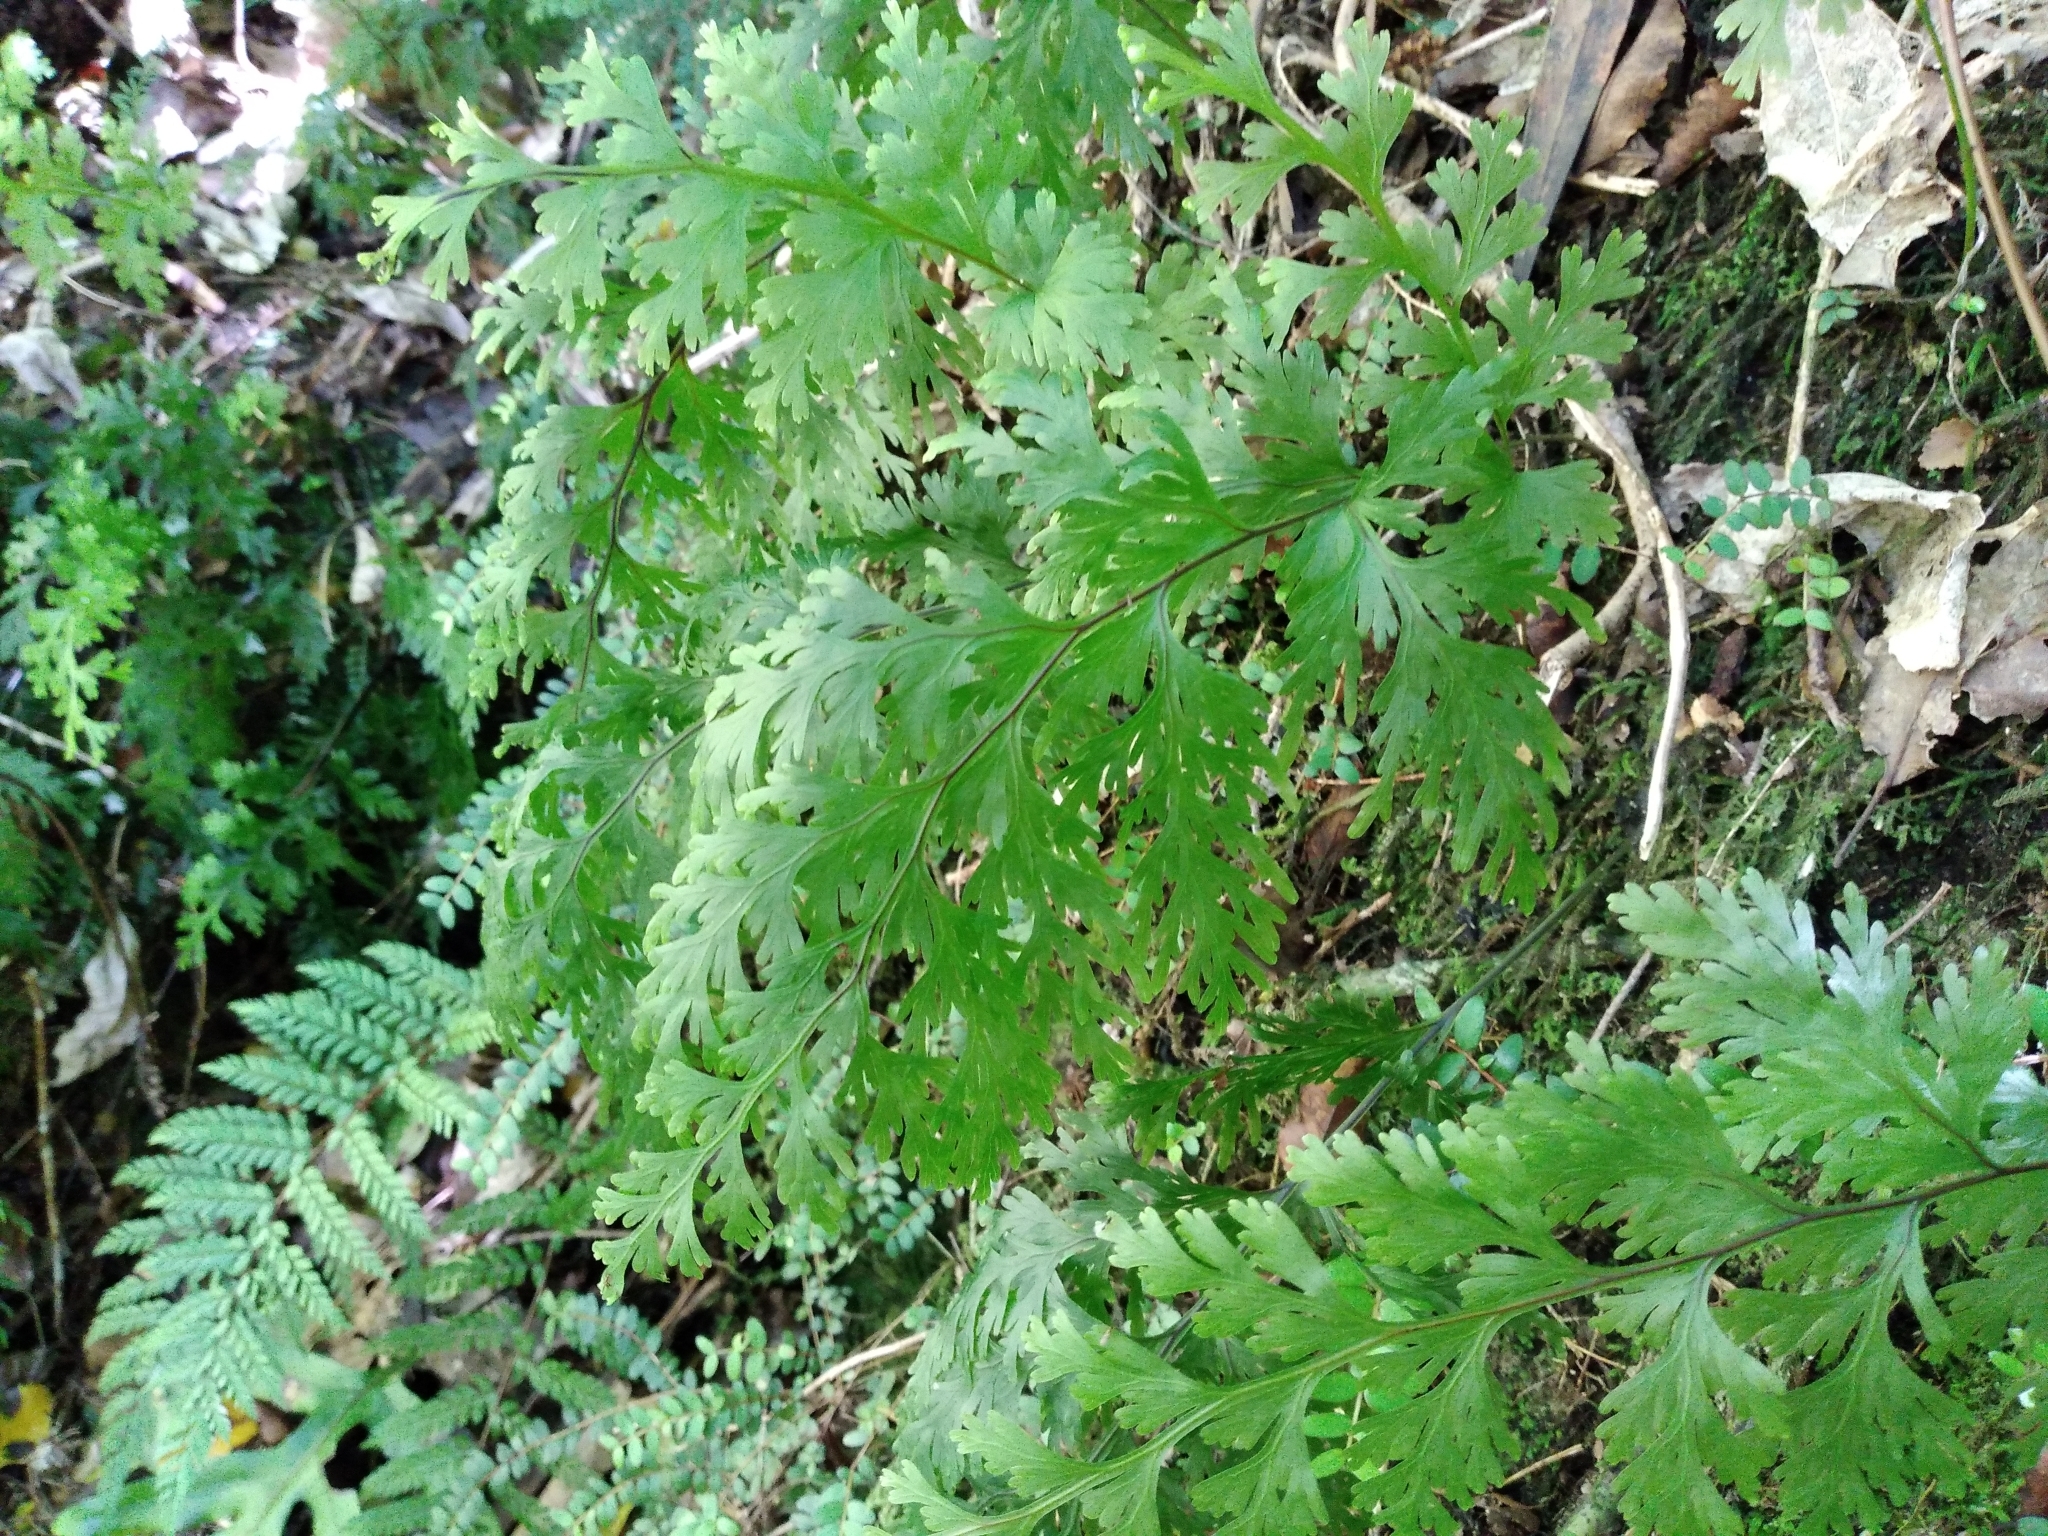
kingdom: Plantae
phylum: Tracheophyta
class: Polypodiopsida
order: Hymenophyllales
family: Hymenophyllaceae
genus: Hymenophyllum
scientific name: Hymenophyllum dilatatum
